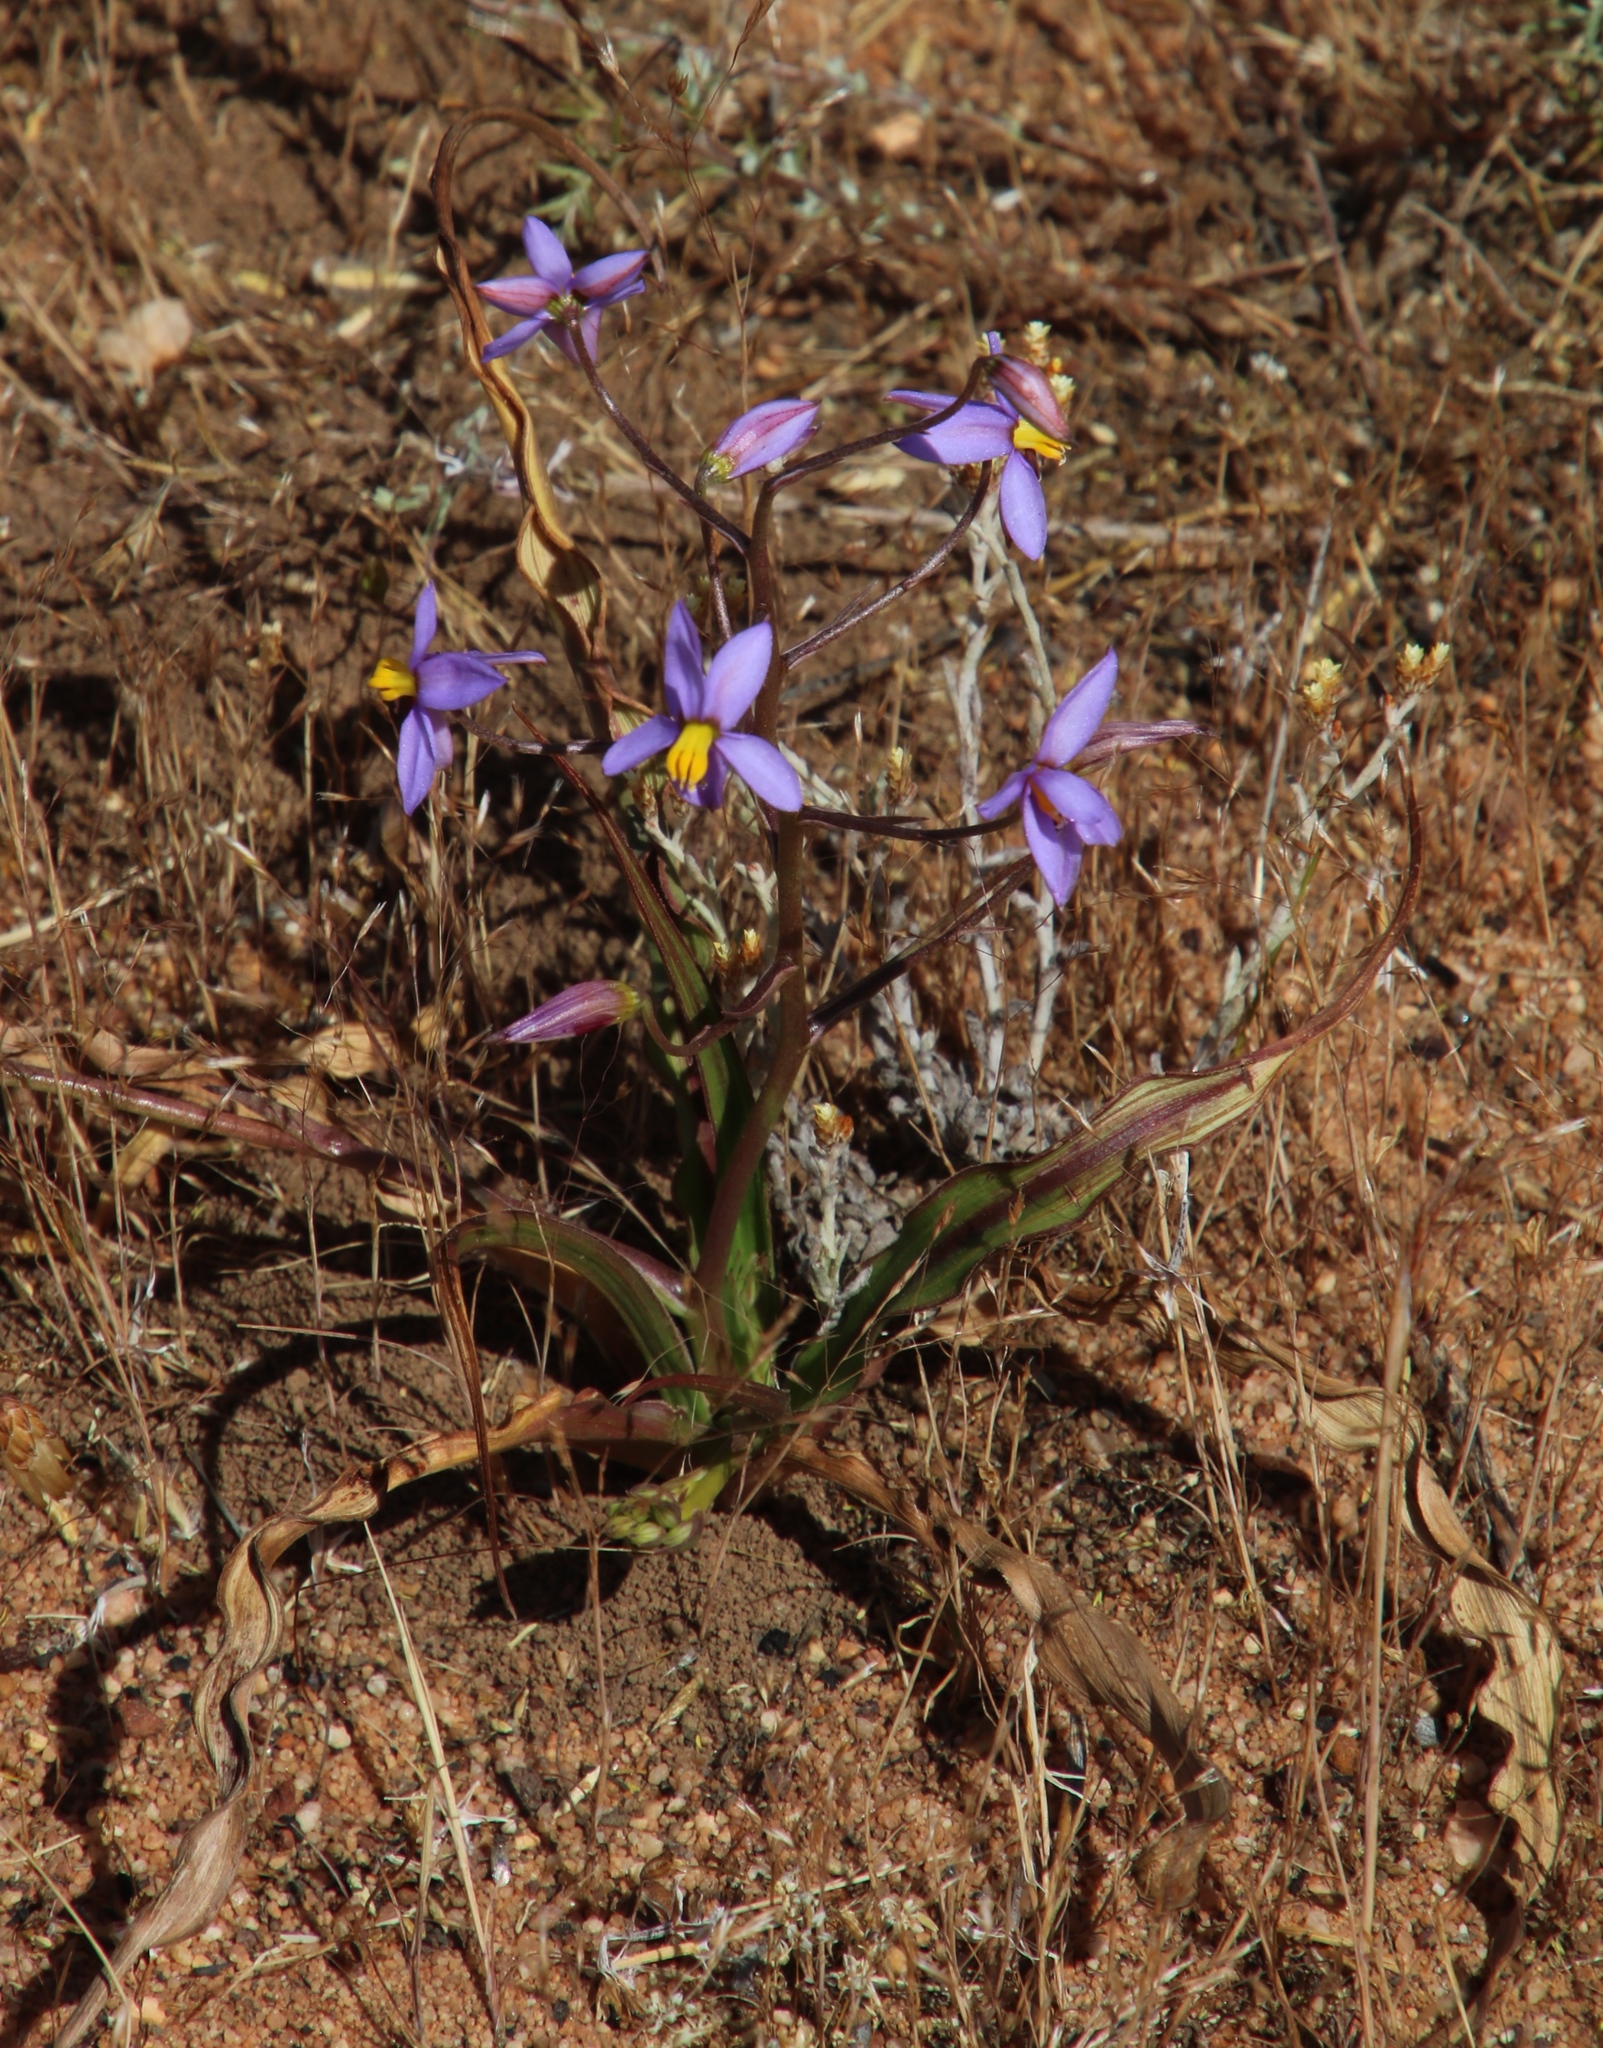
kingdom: Plantae
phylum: Tracheophyta
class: Liliopsida
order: Asparagales
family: Tecophilaeaceae
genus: Cyanella
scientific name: Cyanella hyacinthoides
